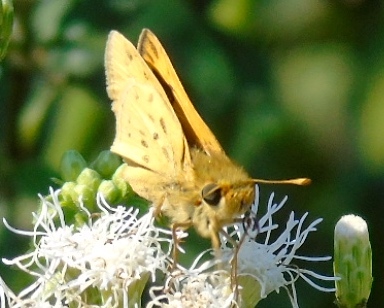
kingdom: Animalia
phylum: Arthropoda
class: Insecta
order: Lepidoptera
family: Hesperiidae
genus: Hylephila
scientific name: Hylephila phyleus
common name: Fiery skipper
